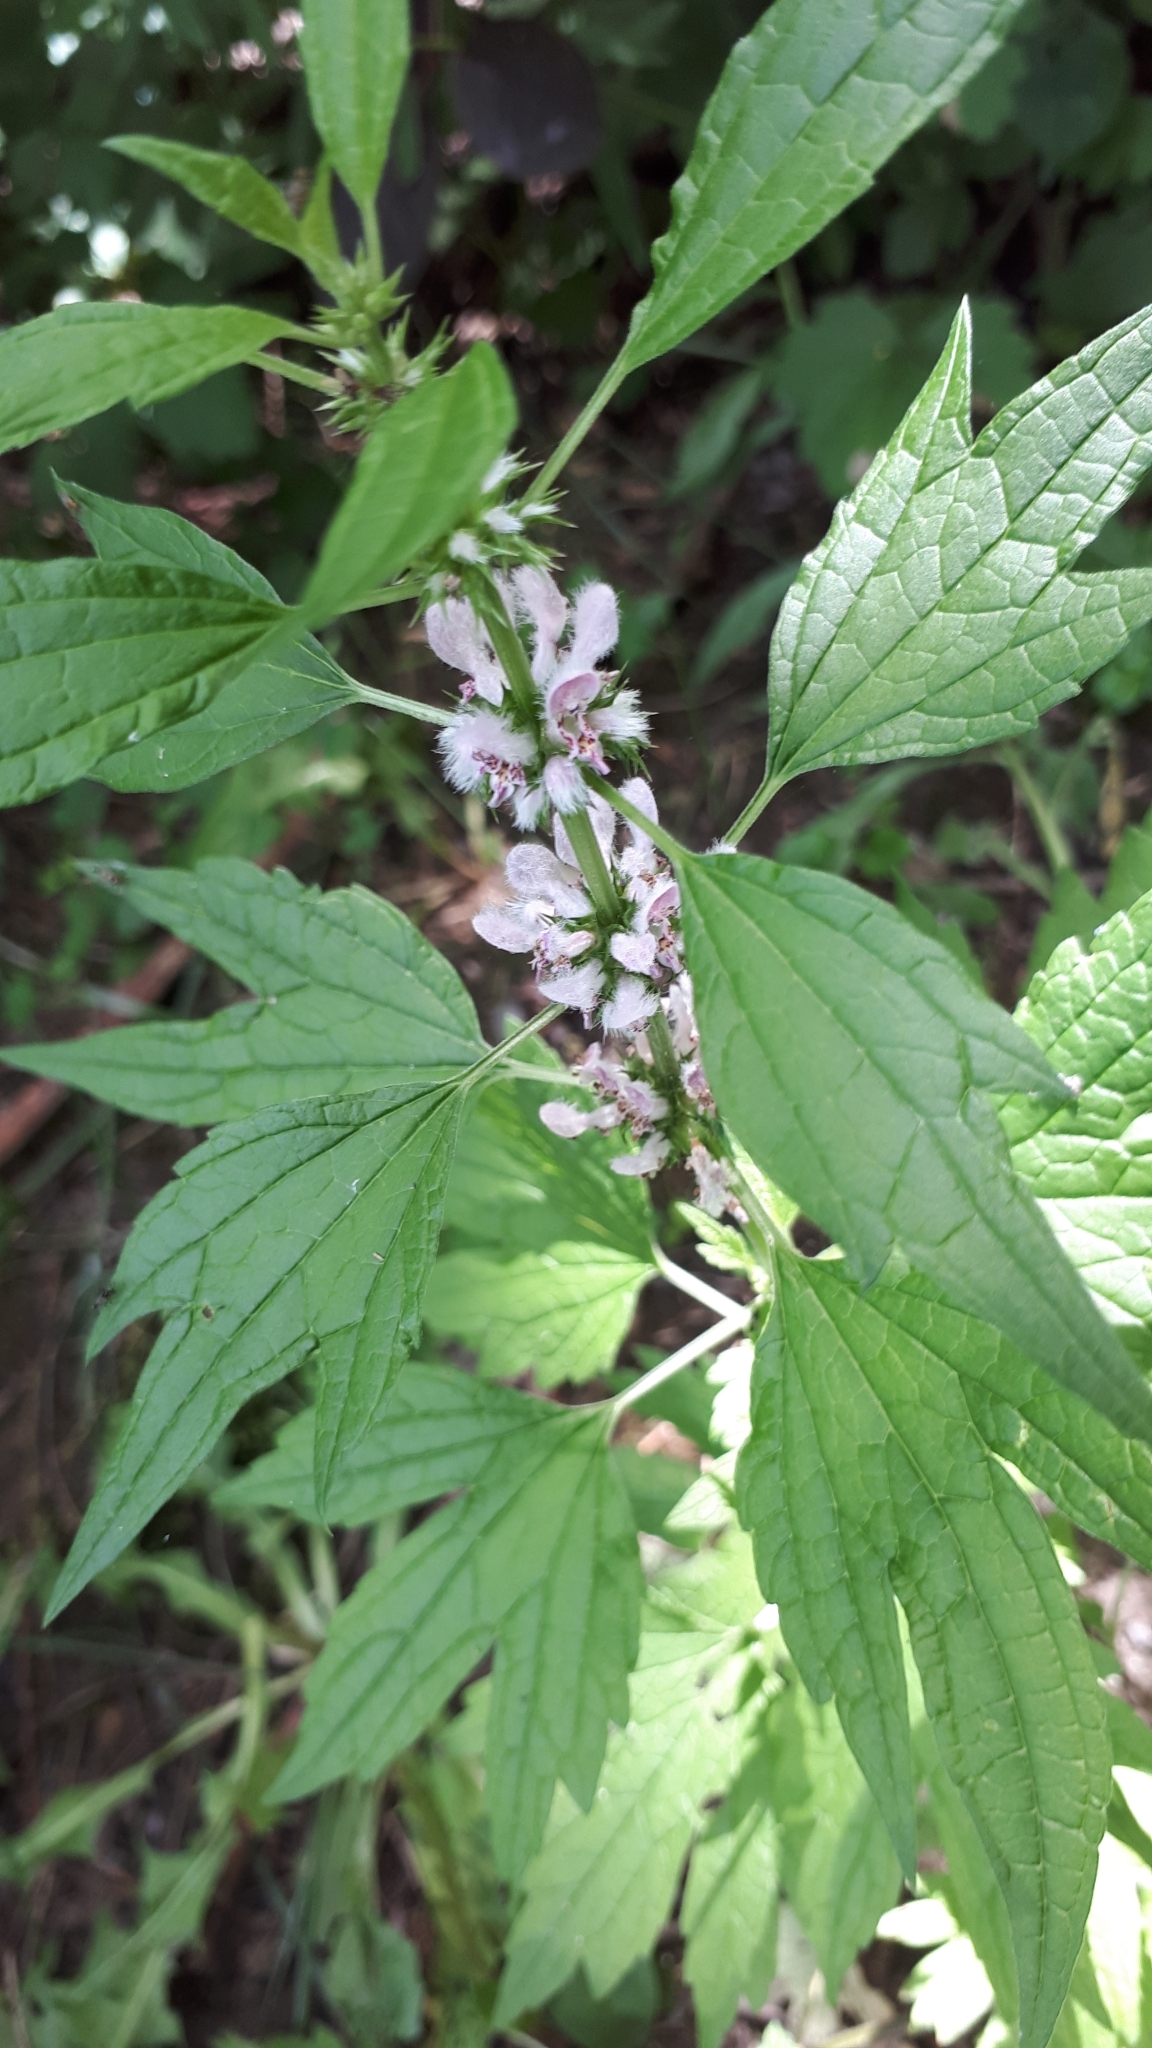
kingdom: Plantae
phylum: Tracheophyta
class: Magnoliopsida
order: Lamiales
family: Lamiaceae
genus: Leonurus
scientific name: Leonurus cardiaca
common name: Motherwort
